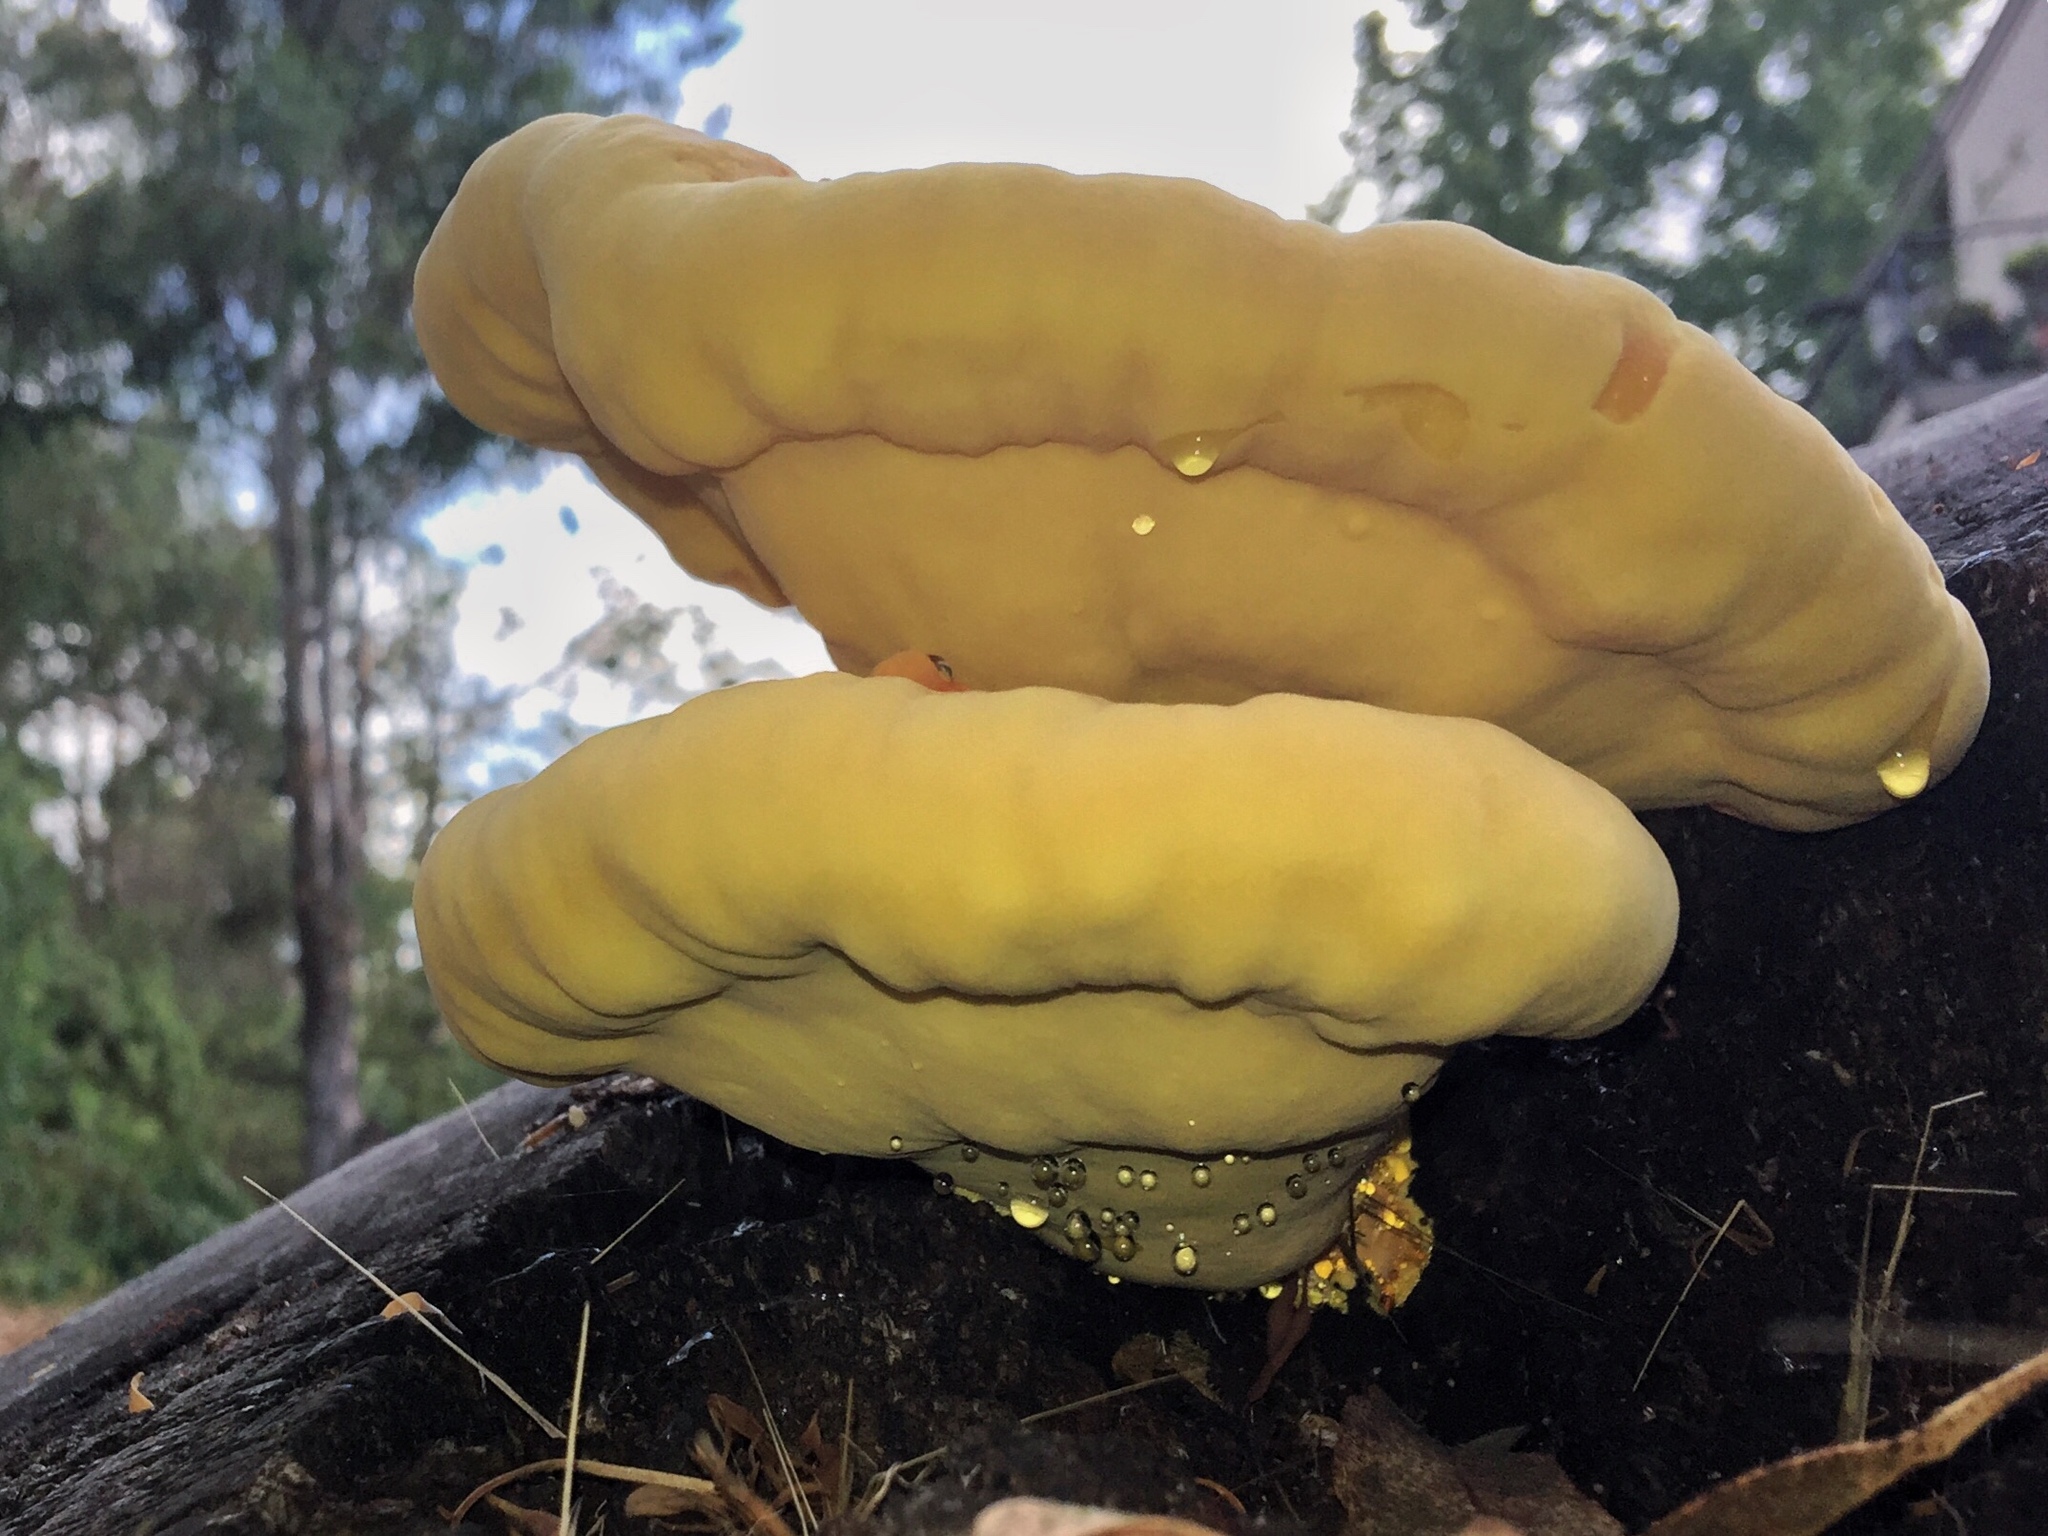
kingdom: Fungi
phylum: Basidiomycota
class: Agaricomycetes
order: Polyporales
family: Laetiporaceae
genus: Laetiporus
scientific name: Laetiporus gilbertsonii
